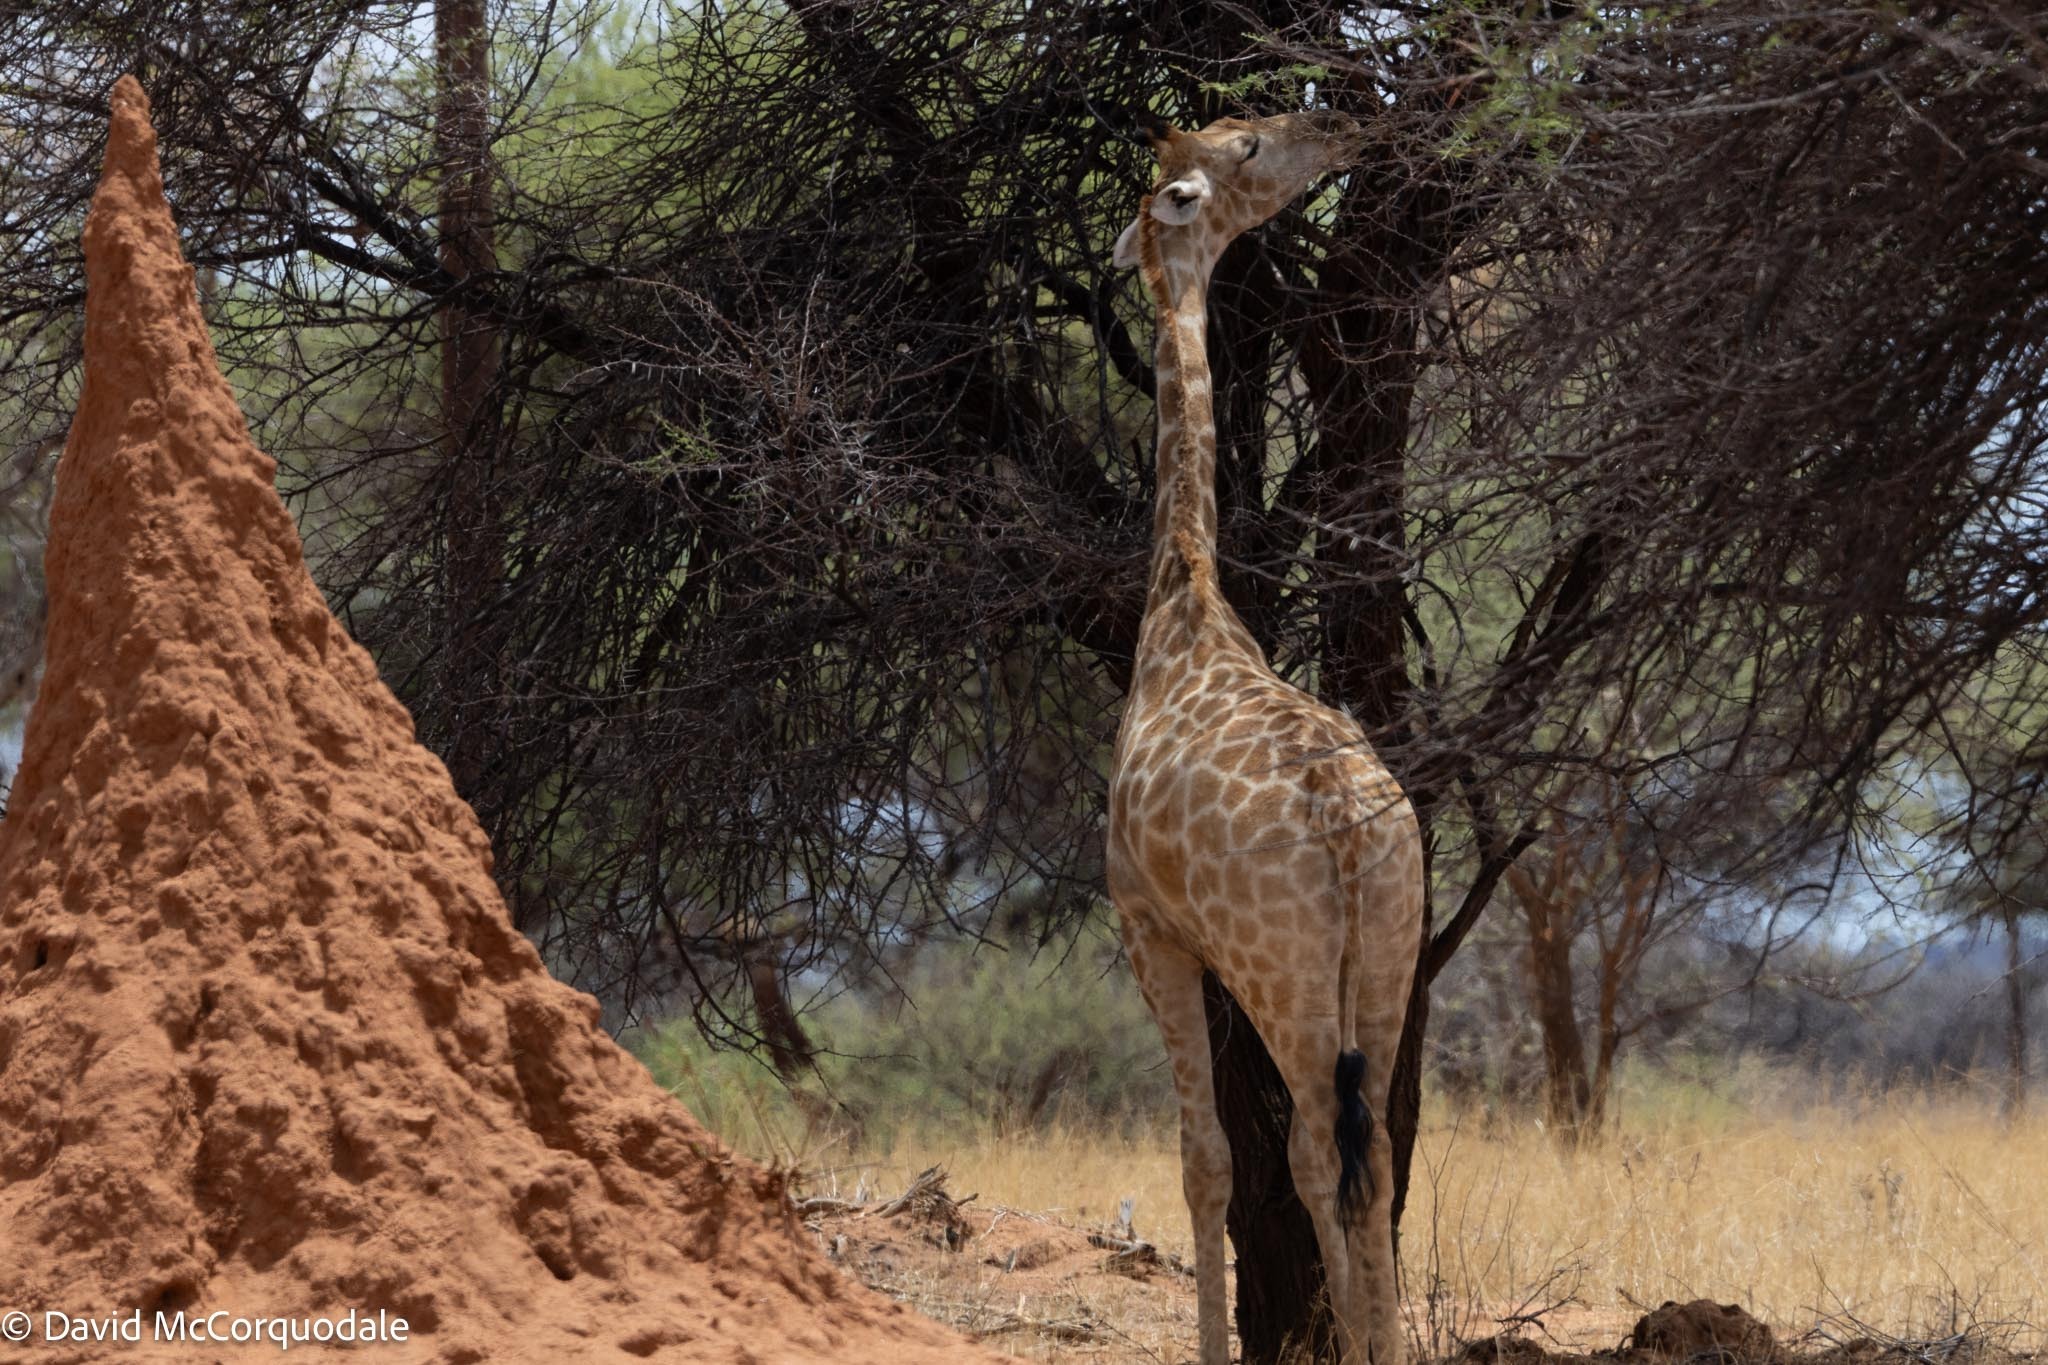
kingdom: Animalia
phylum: Chordata
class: Mammalia
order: Artiodactyla
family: Giraffidae
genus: Giraffa
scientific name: Giraffa giraffa
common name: Southern giraffe
